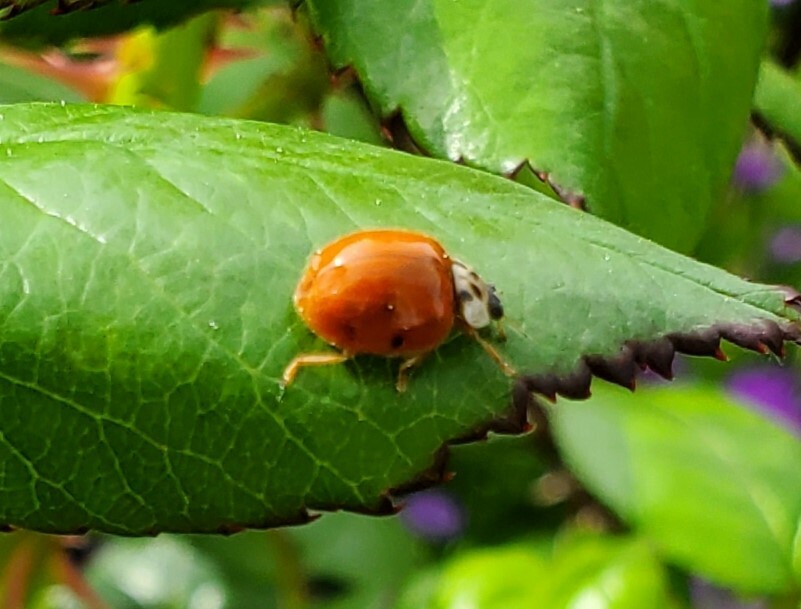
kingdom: Animalia
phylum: Arthropoda
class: Insecta
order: Coleoptera
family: Coccinellidae
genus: Harmonia
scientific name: Harmonia axyridis
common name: Harlequin ladybird
